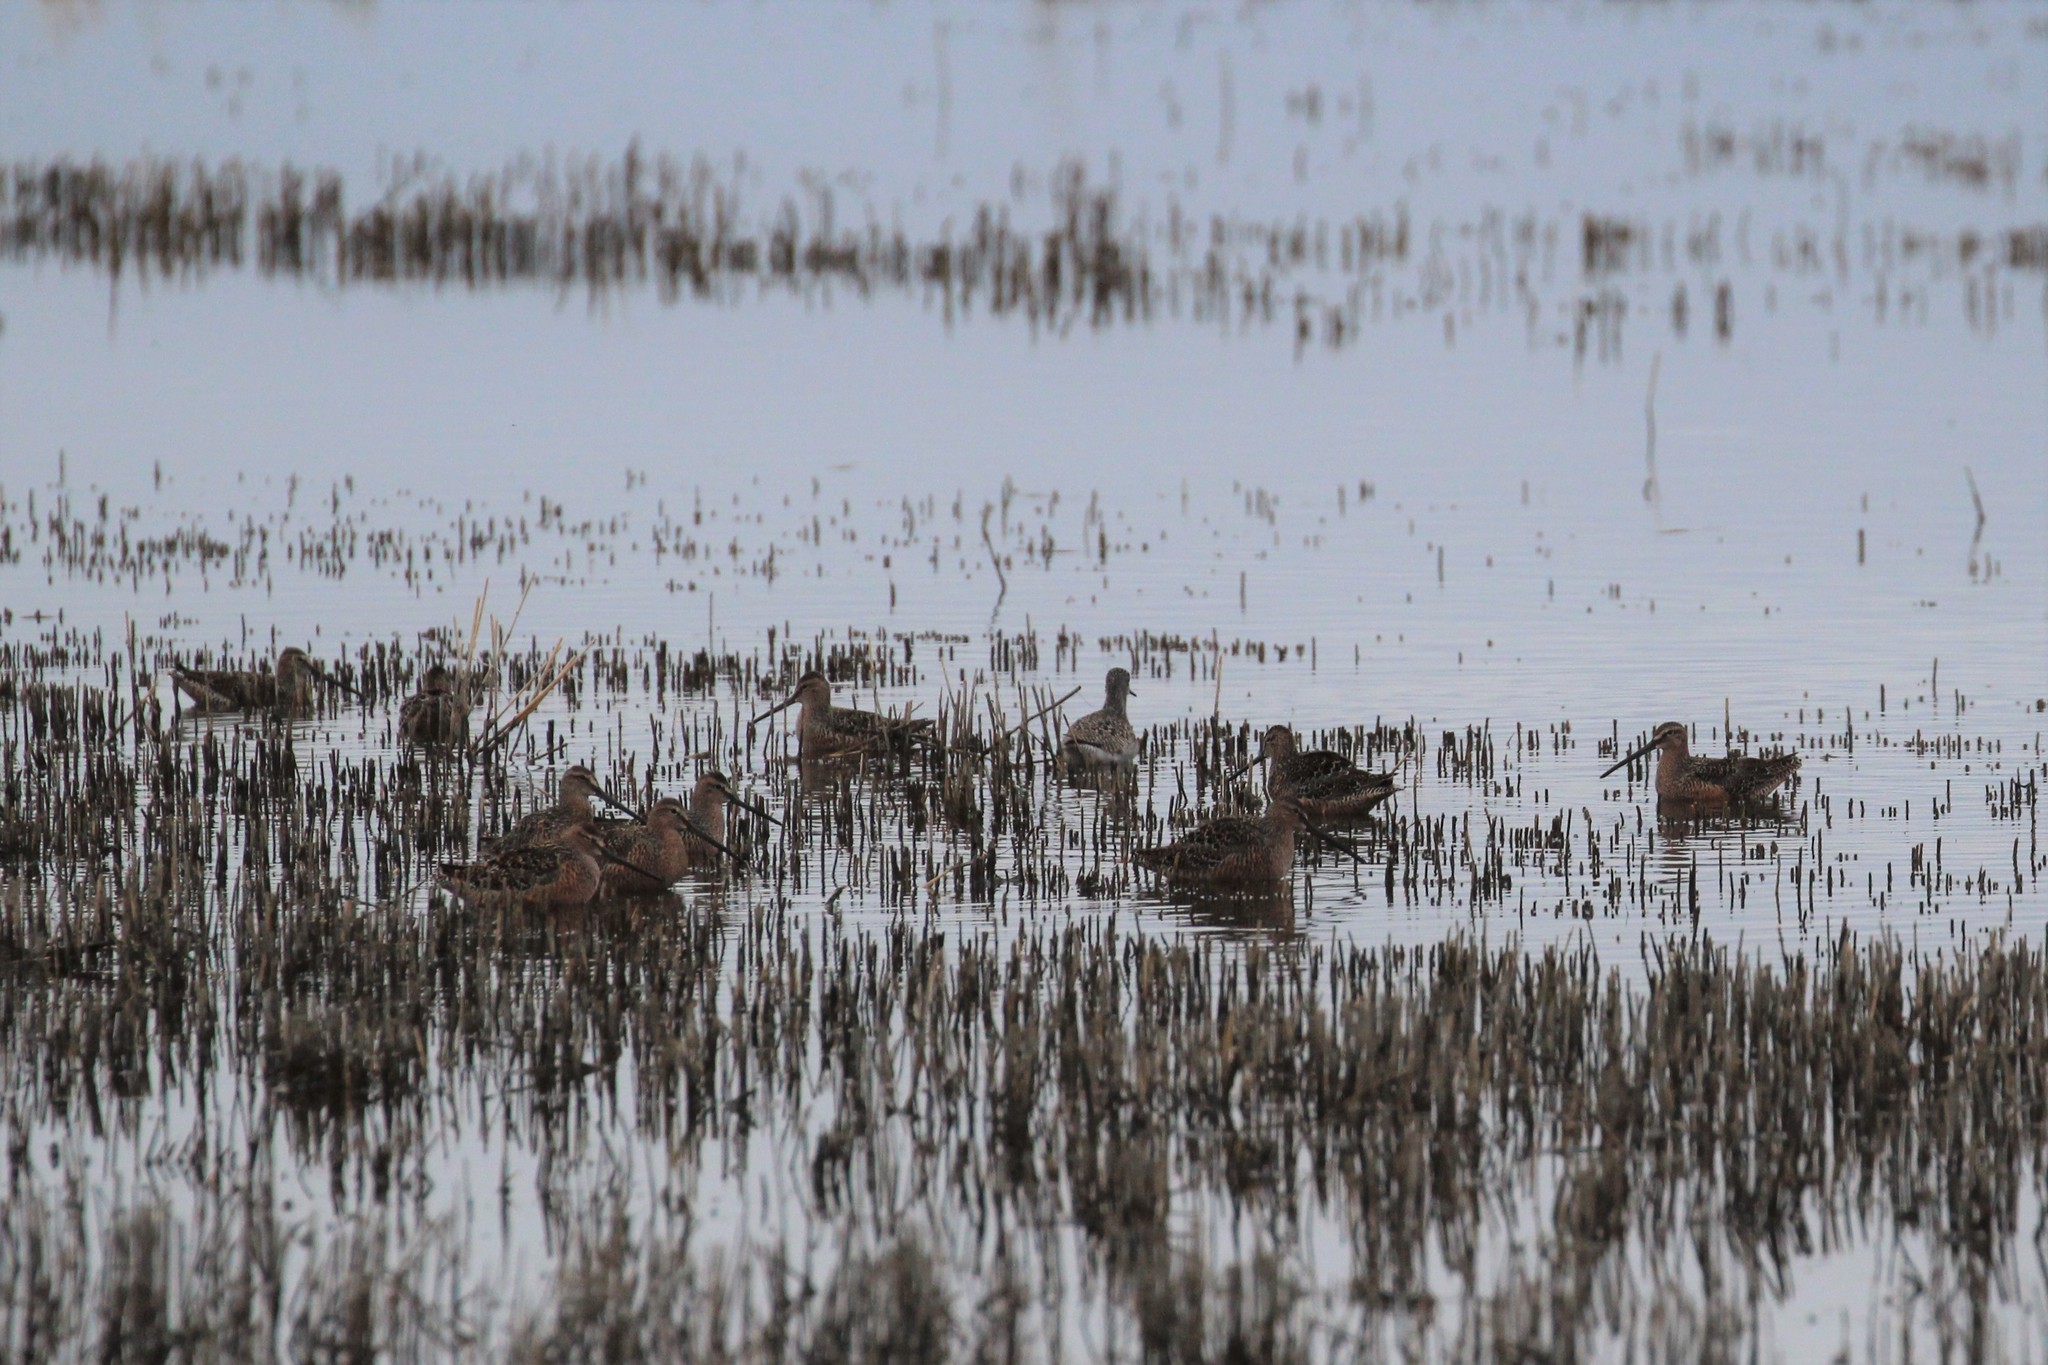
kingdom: Animalia
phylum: Chordata
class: Aves
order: Charadriiformes
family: Scolopacidae
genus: Limnodromus
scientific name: Limnodromus scolopaceus
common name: Long-billed dowitcher
